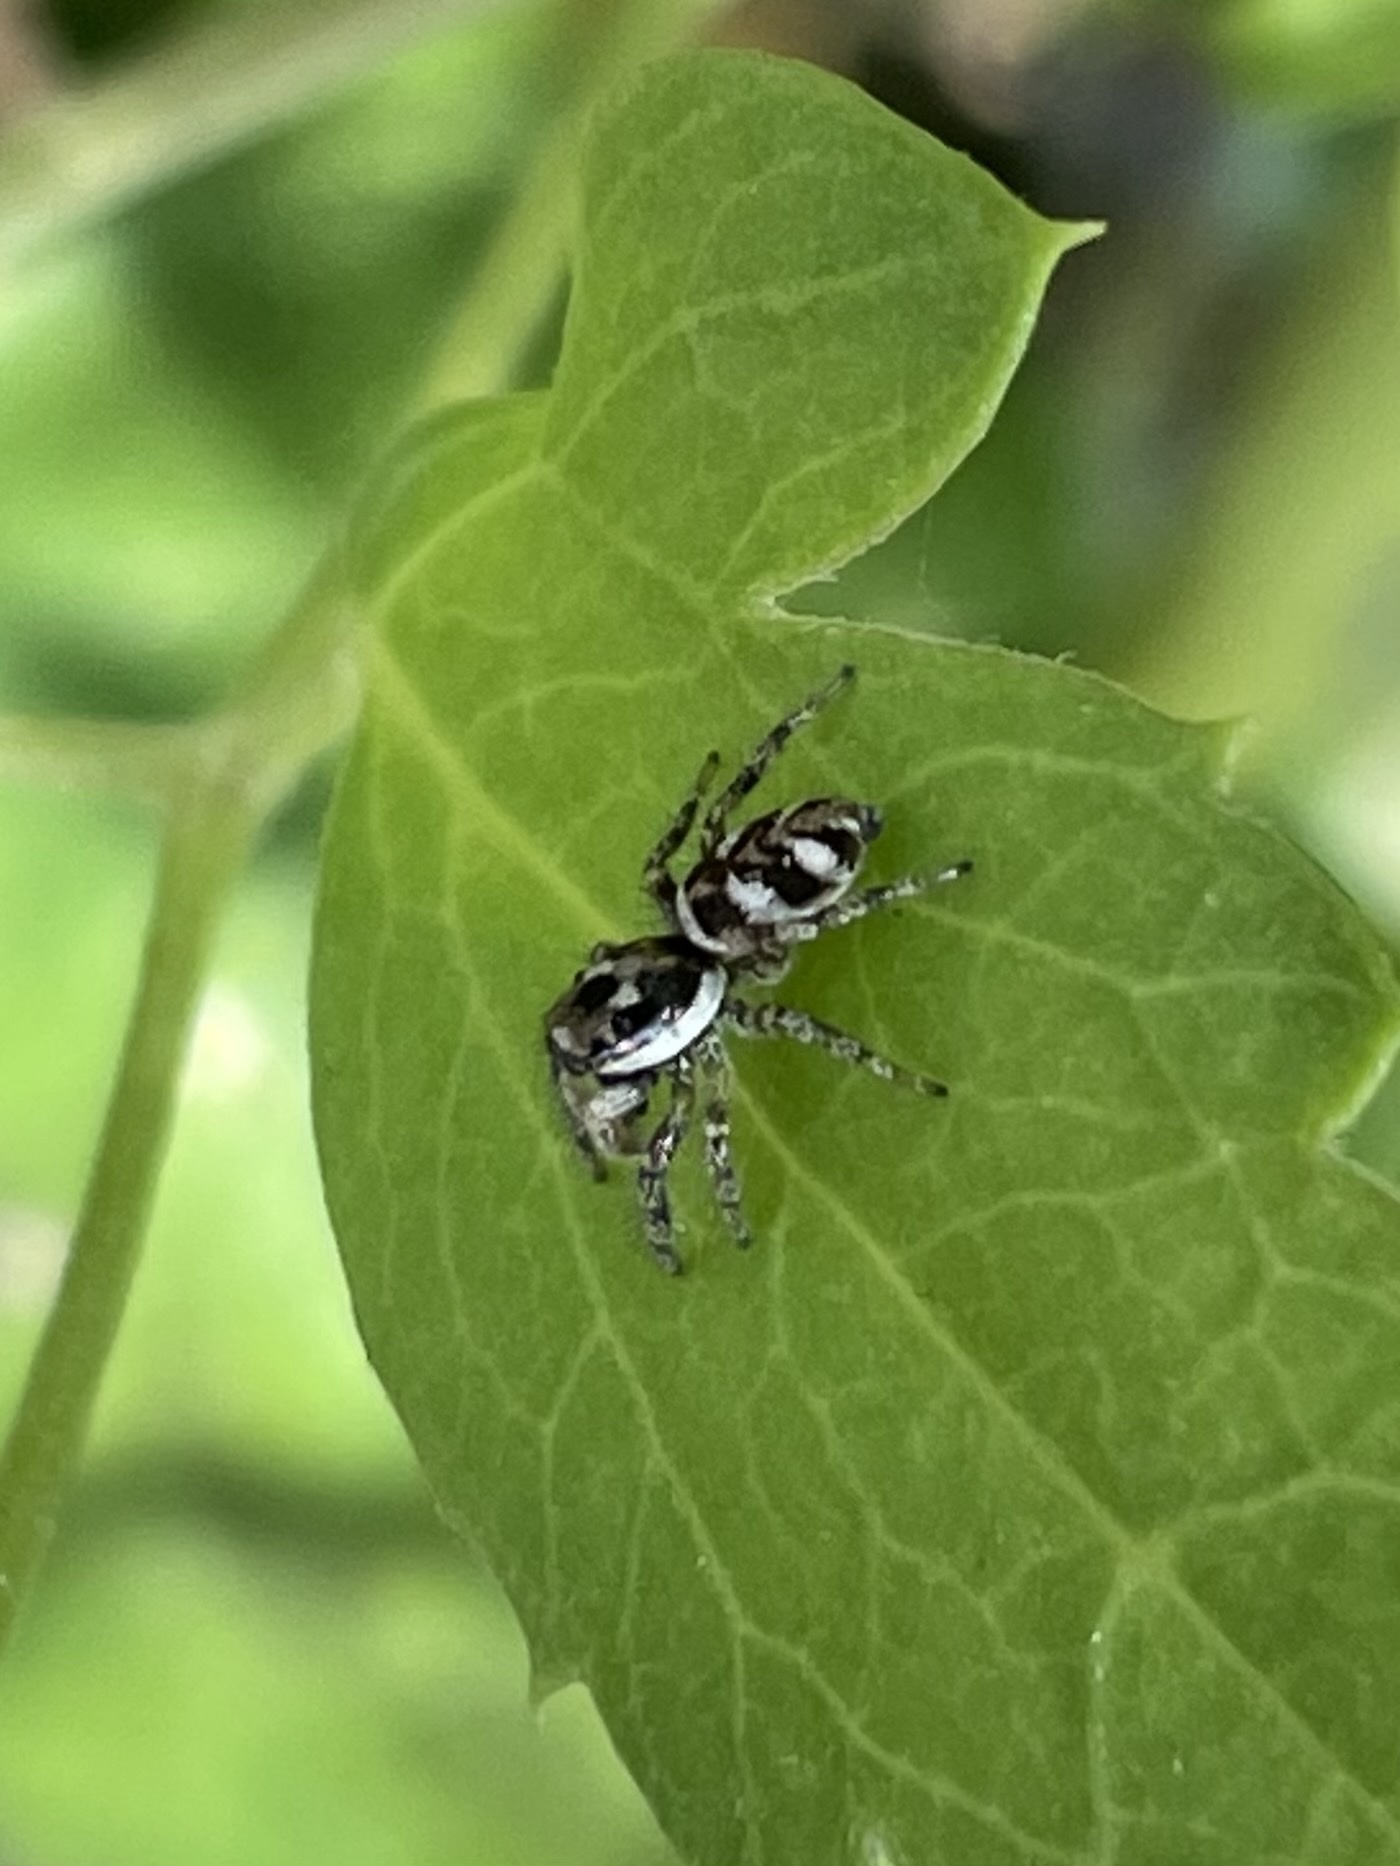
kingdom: Animalia
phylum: Arthropoda
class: Arachnida
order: Araneae
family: Salticidae
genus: Salticus
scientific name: Salticus scenicus
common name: Zebra jumper
